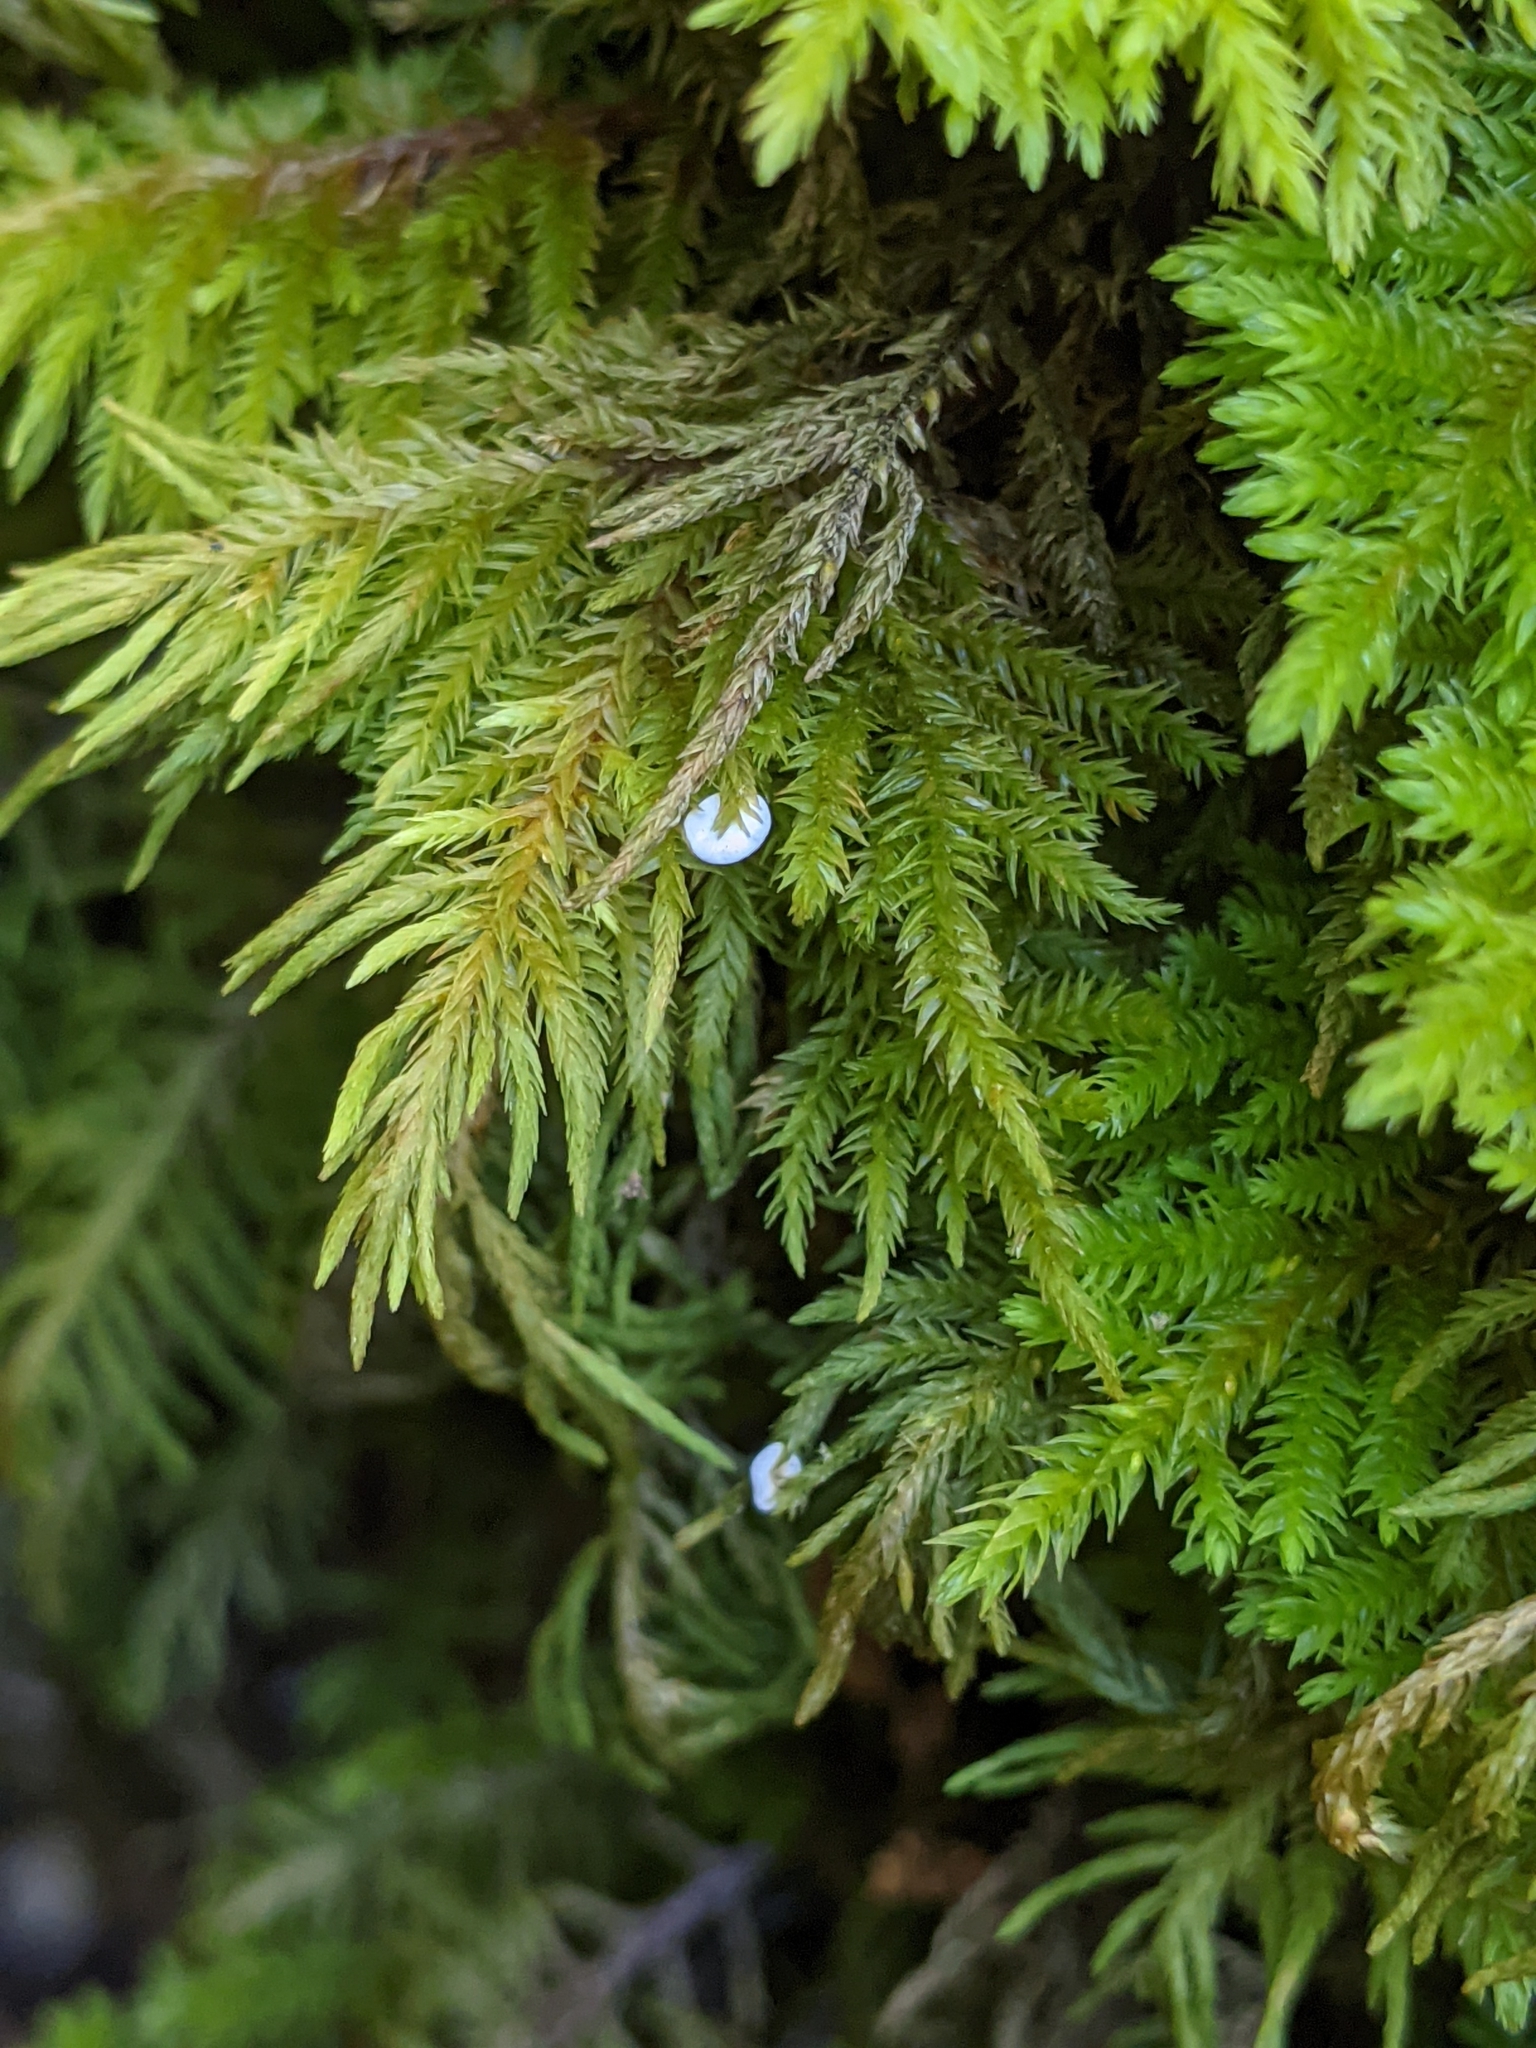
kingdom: Fungi
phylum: Basidiomycota
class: Agaricomycetes
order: Agaricales
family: Hygrophoraceae
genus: Arrhenia
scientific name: Arrhenia retiruga
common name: Small moss oysterling
